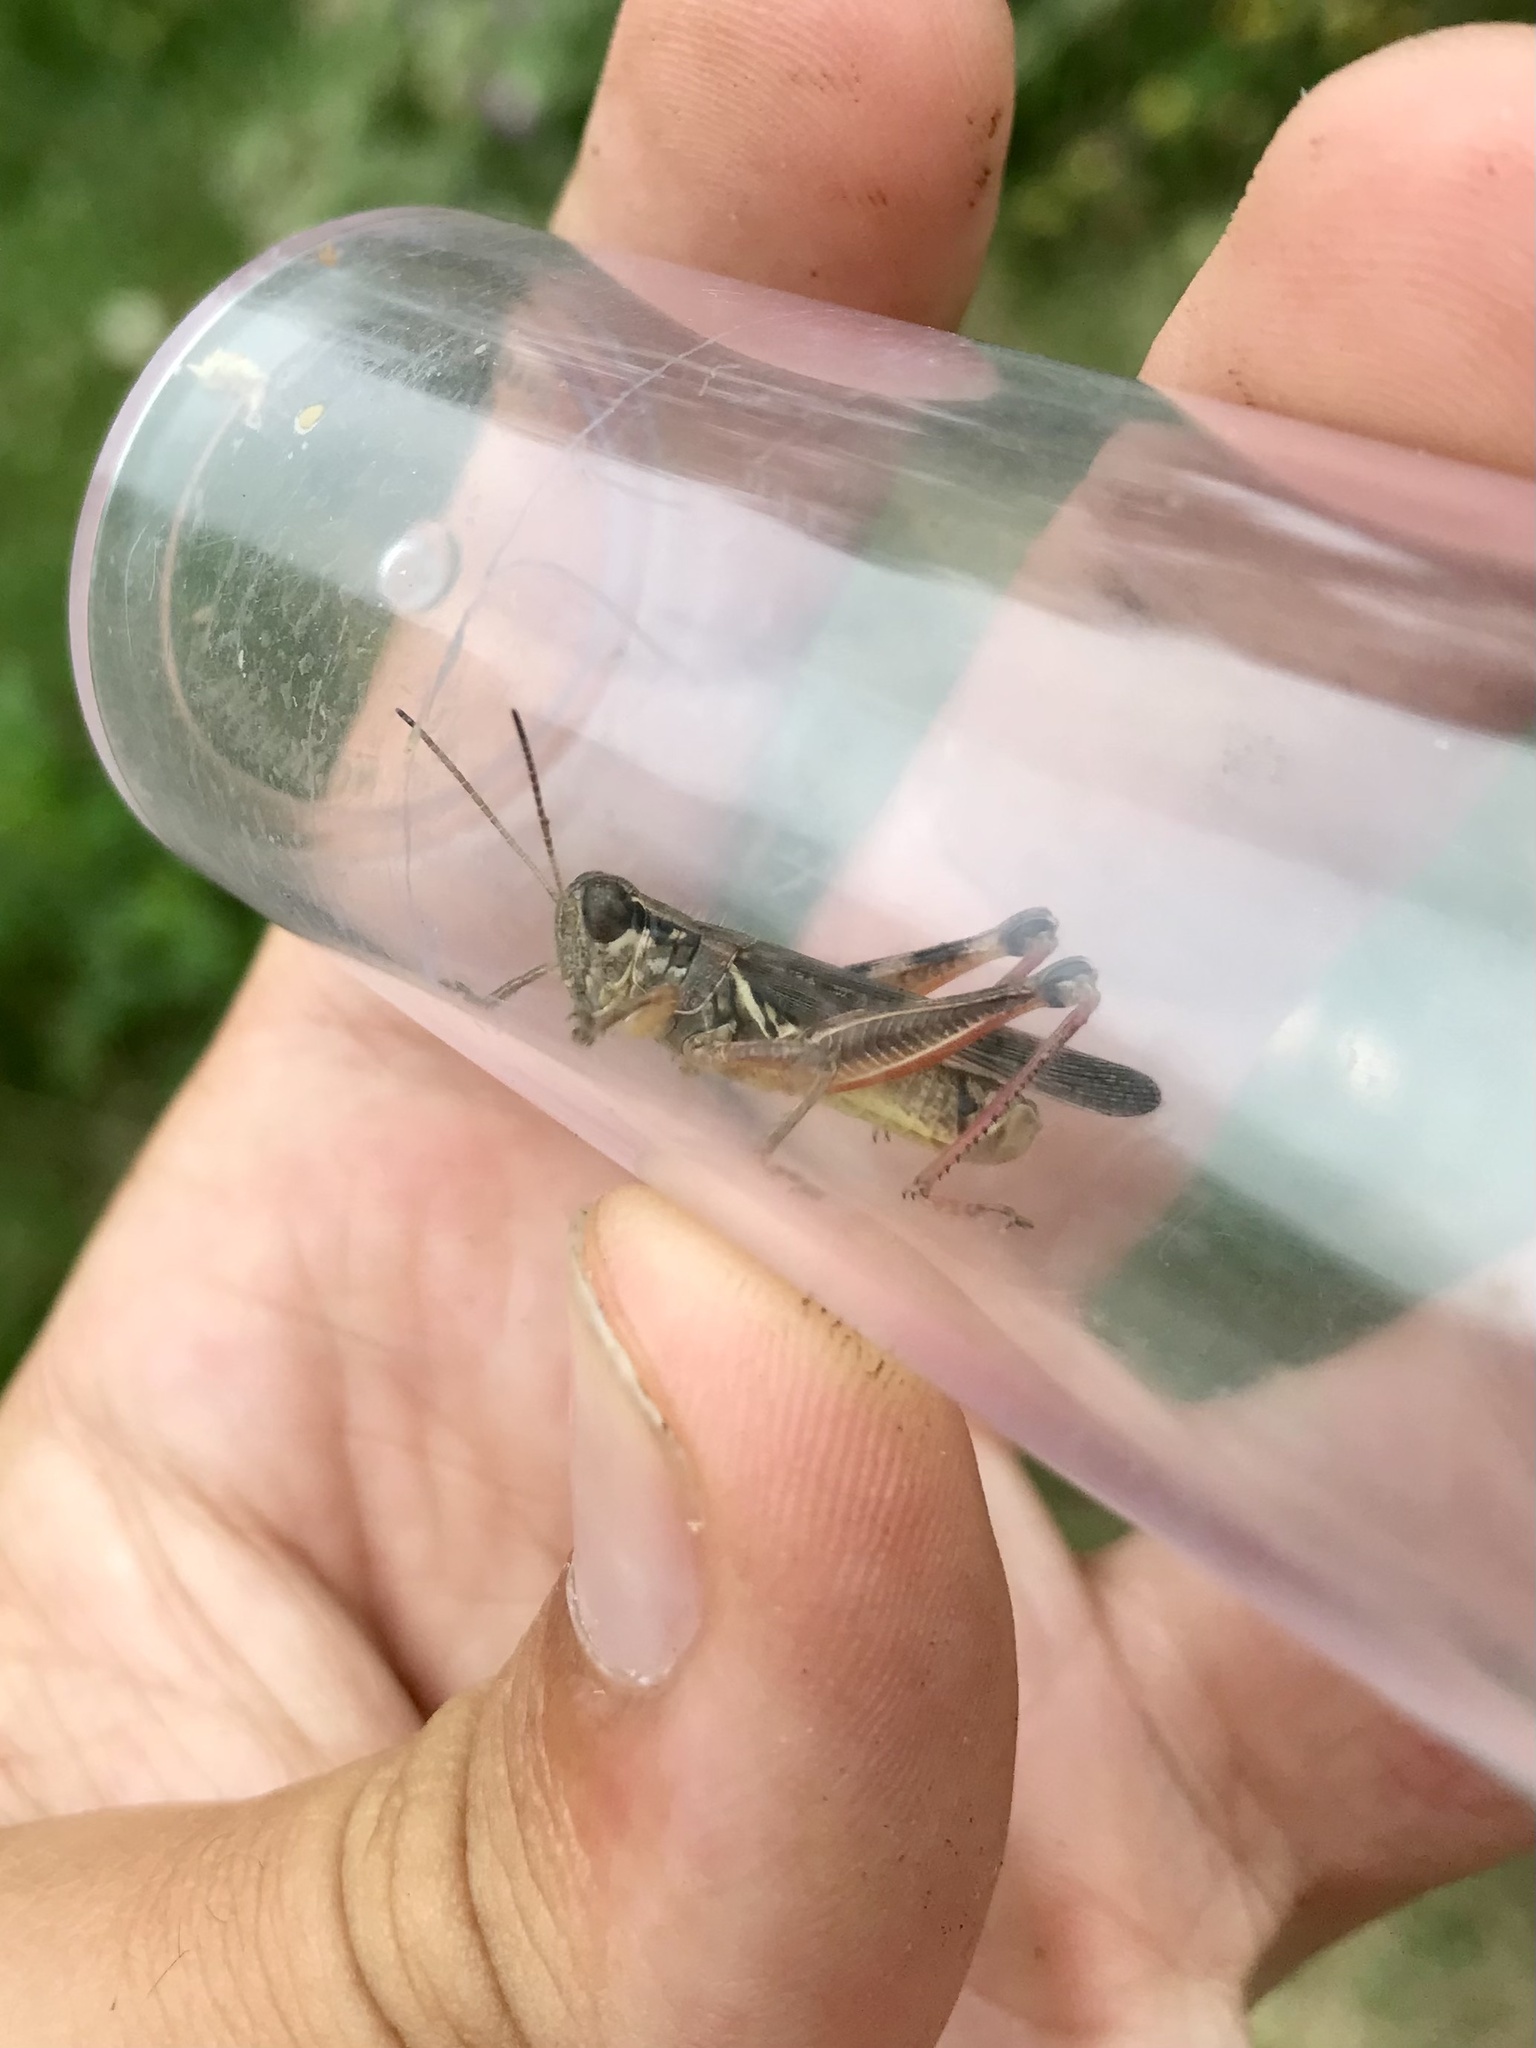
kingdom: Animalia
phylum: Arthropoda
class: Insecta
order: Orthoptera
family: Acrididae
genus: Melanoplus
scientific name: Melanoplus femurrubrum
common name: Red-legged grasshopper
